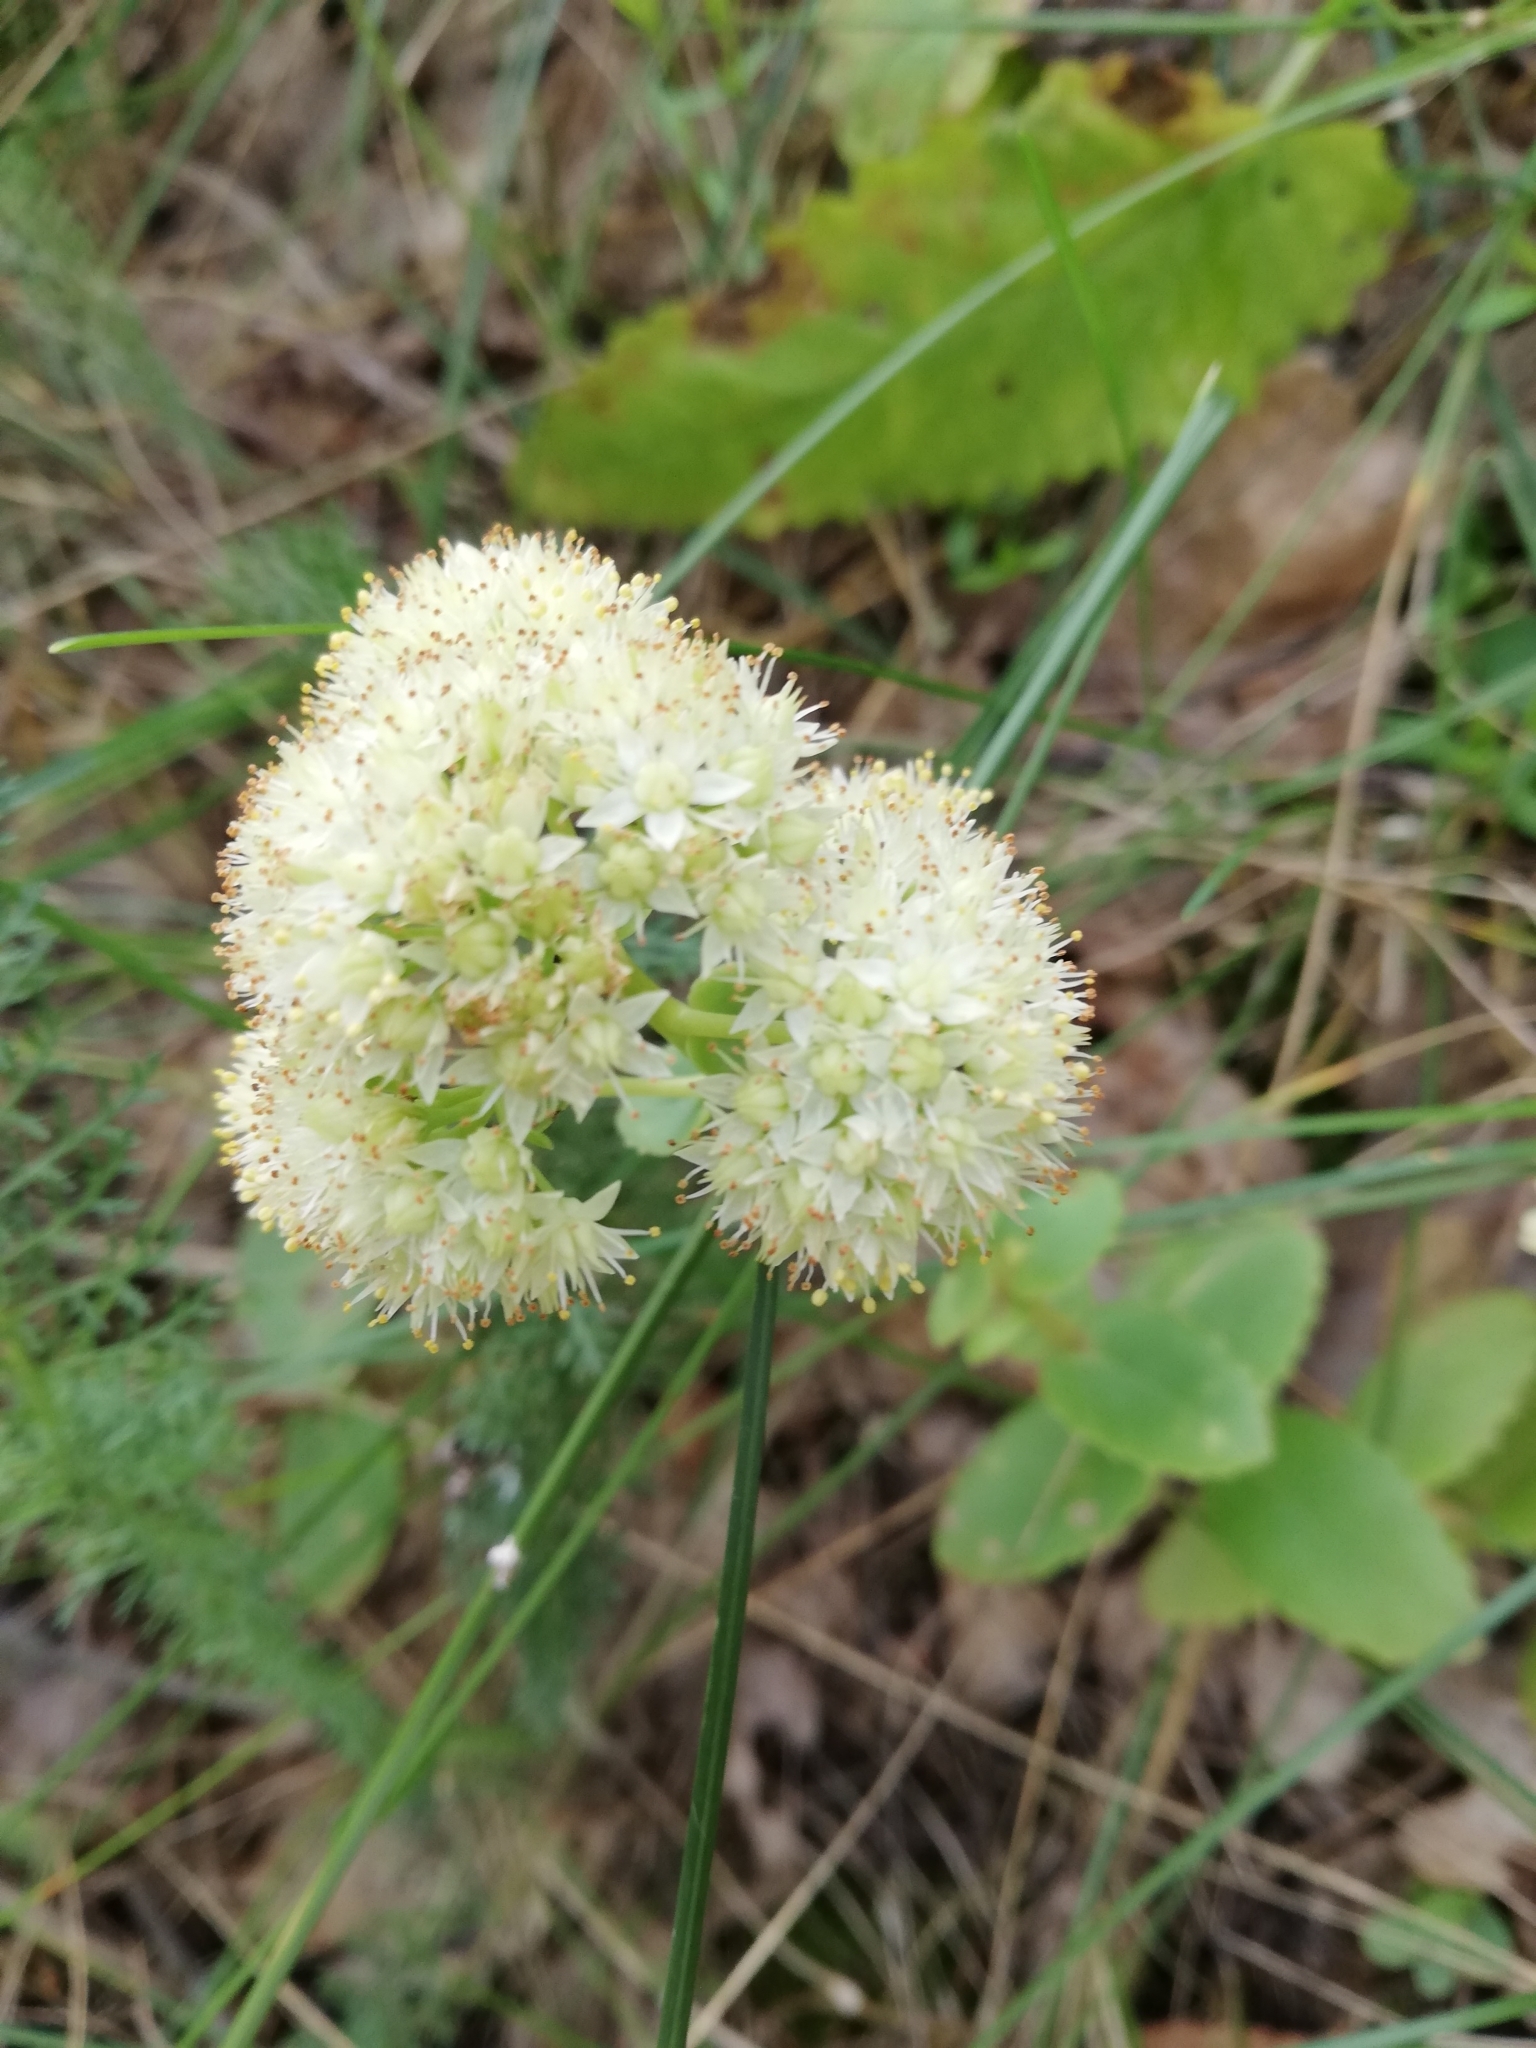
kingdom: Plantae
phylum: Tracheophyta
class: Magnoliopsida
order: Saxifragales
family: Crassulaceae
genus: Hylotelephium
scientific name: Hylotelephium maximum
